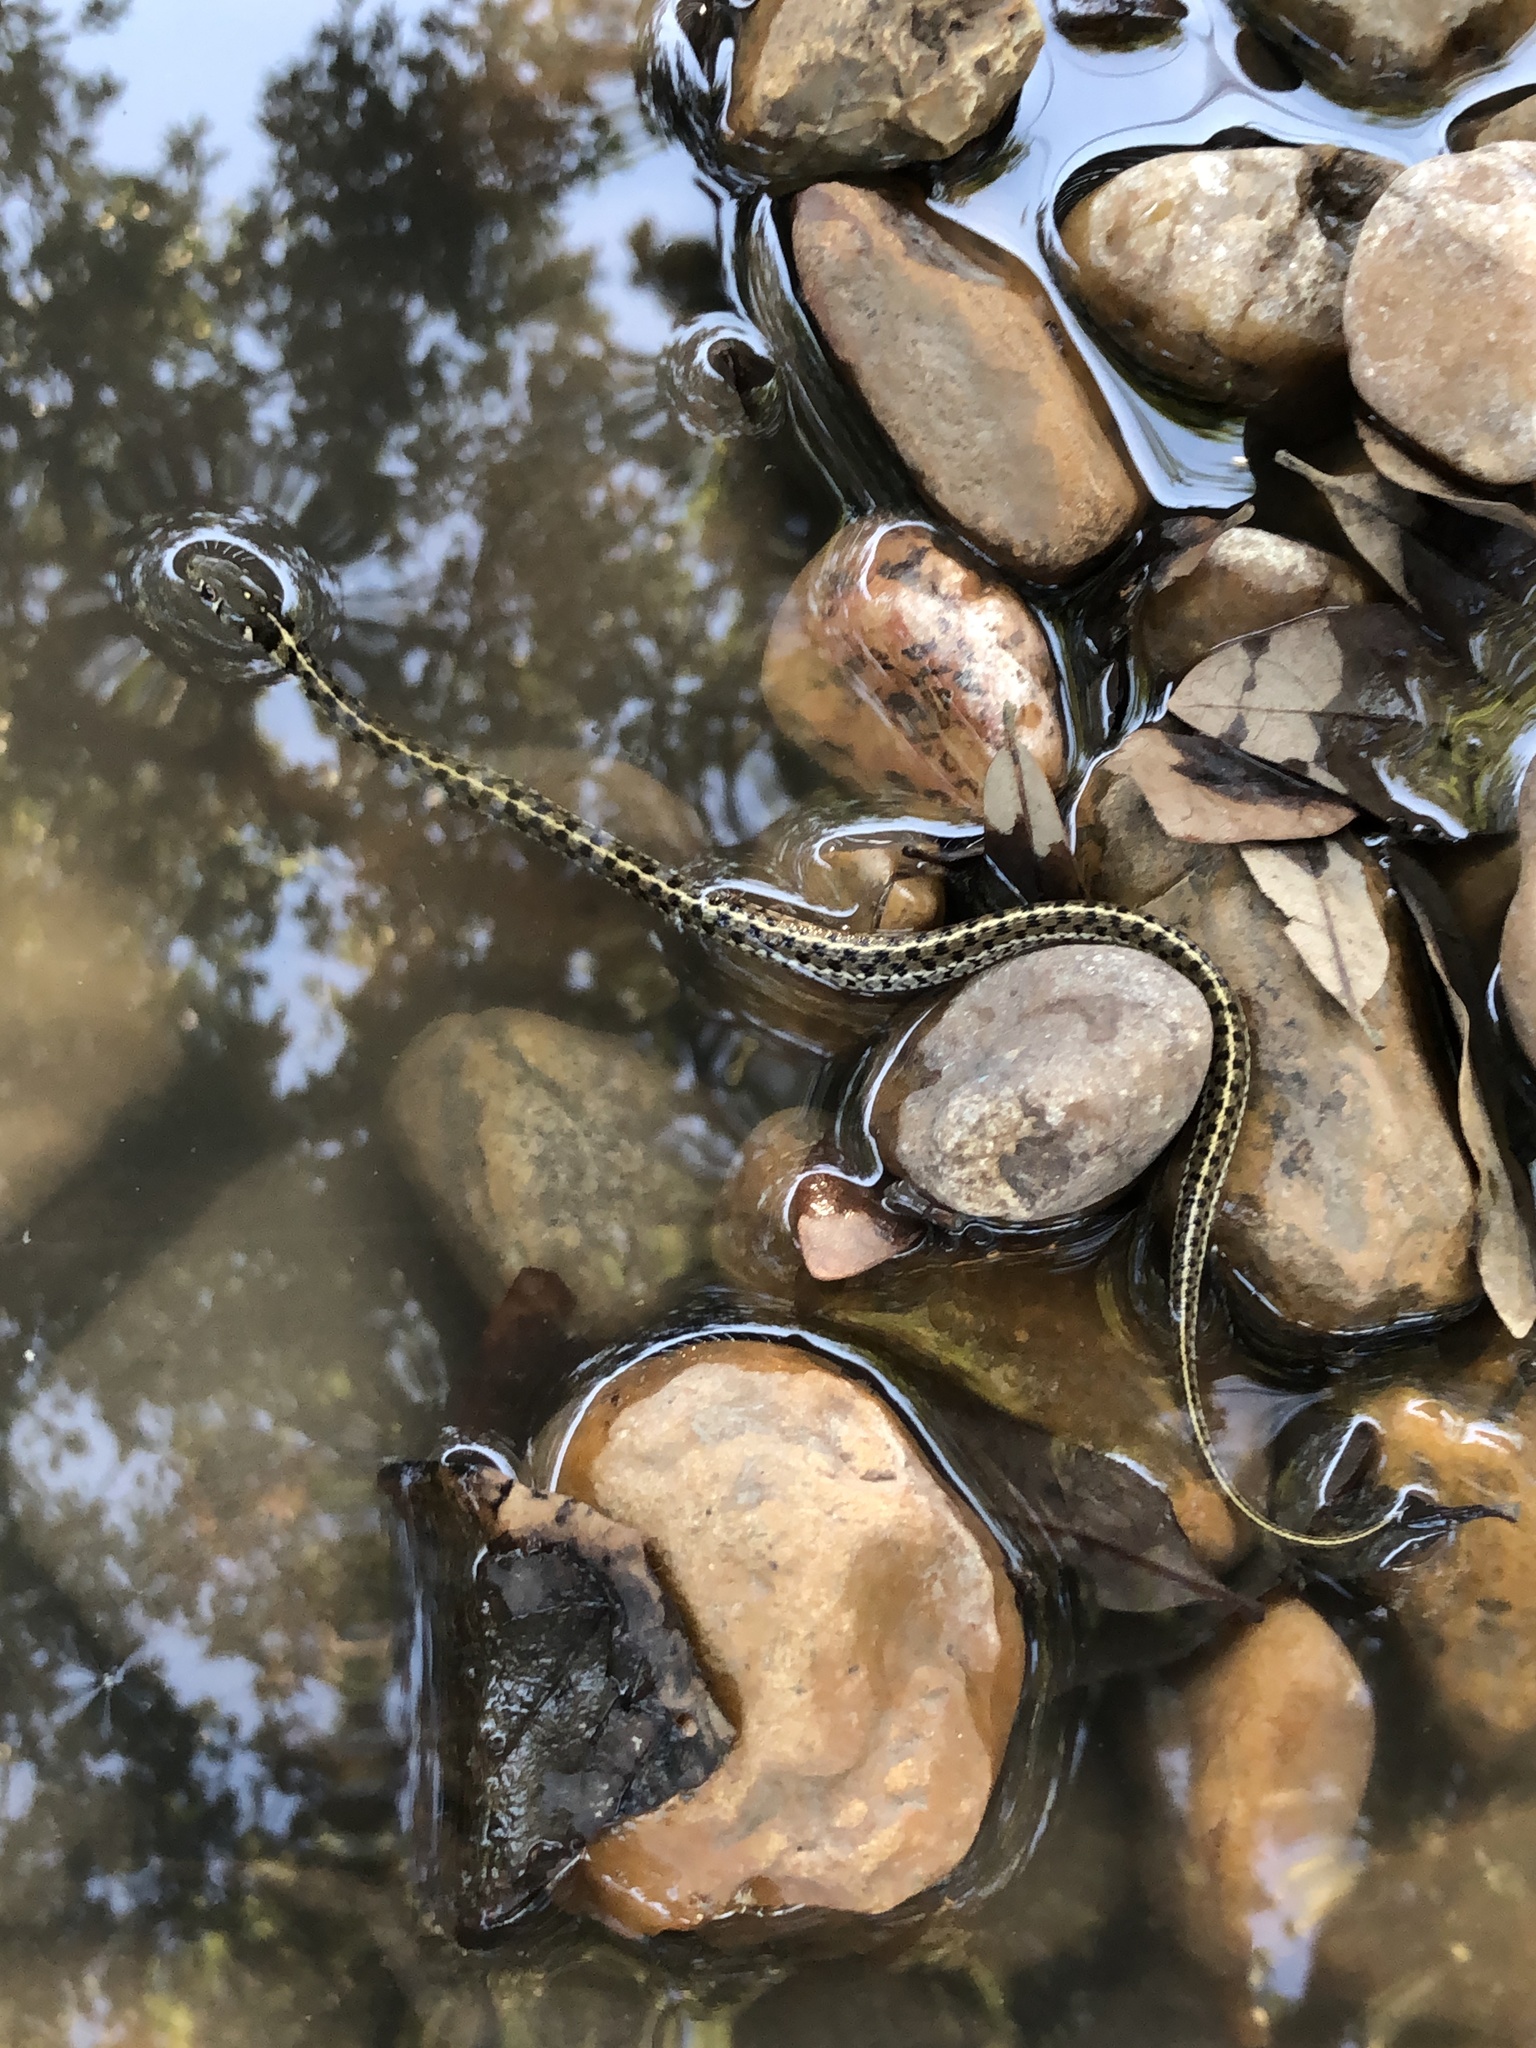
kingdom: Animalia
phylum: Chordata
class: Squamata
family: Colubridae
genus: Thamnophis
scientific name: Thamnophis marcianus
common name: Checkered garter snake
